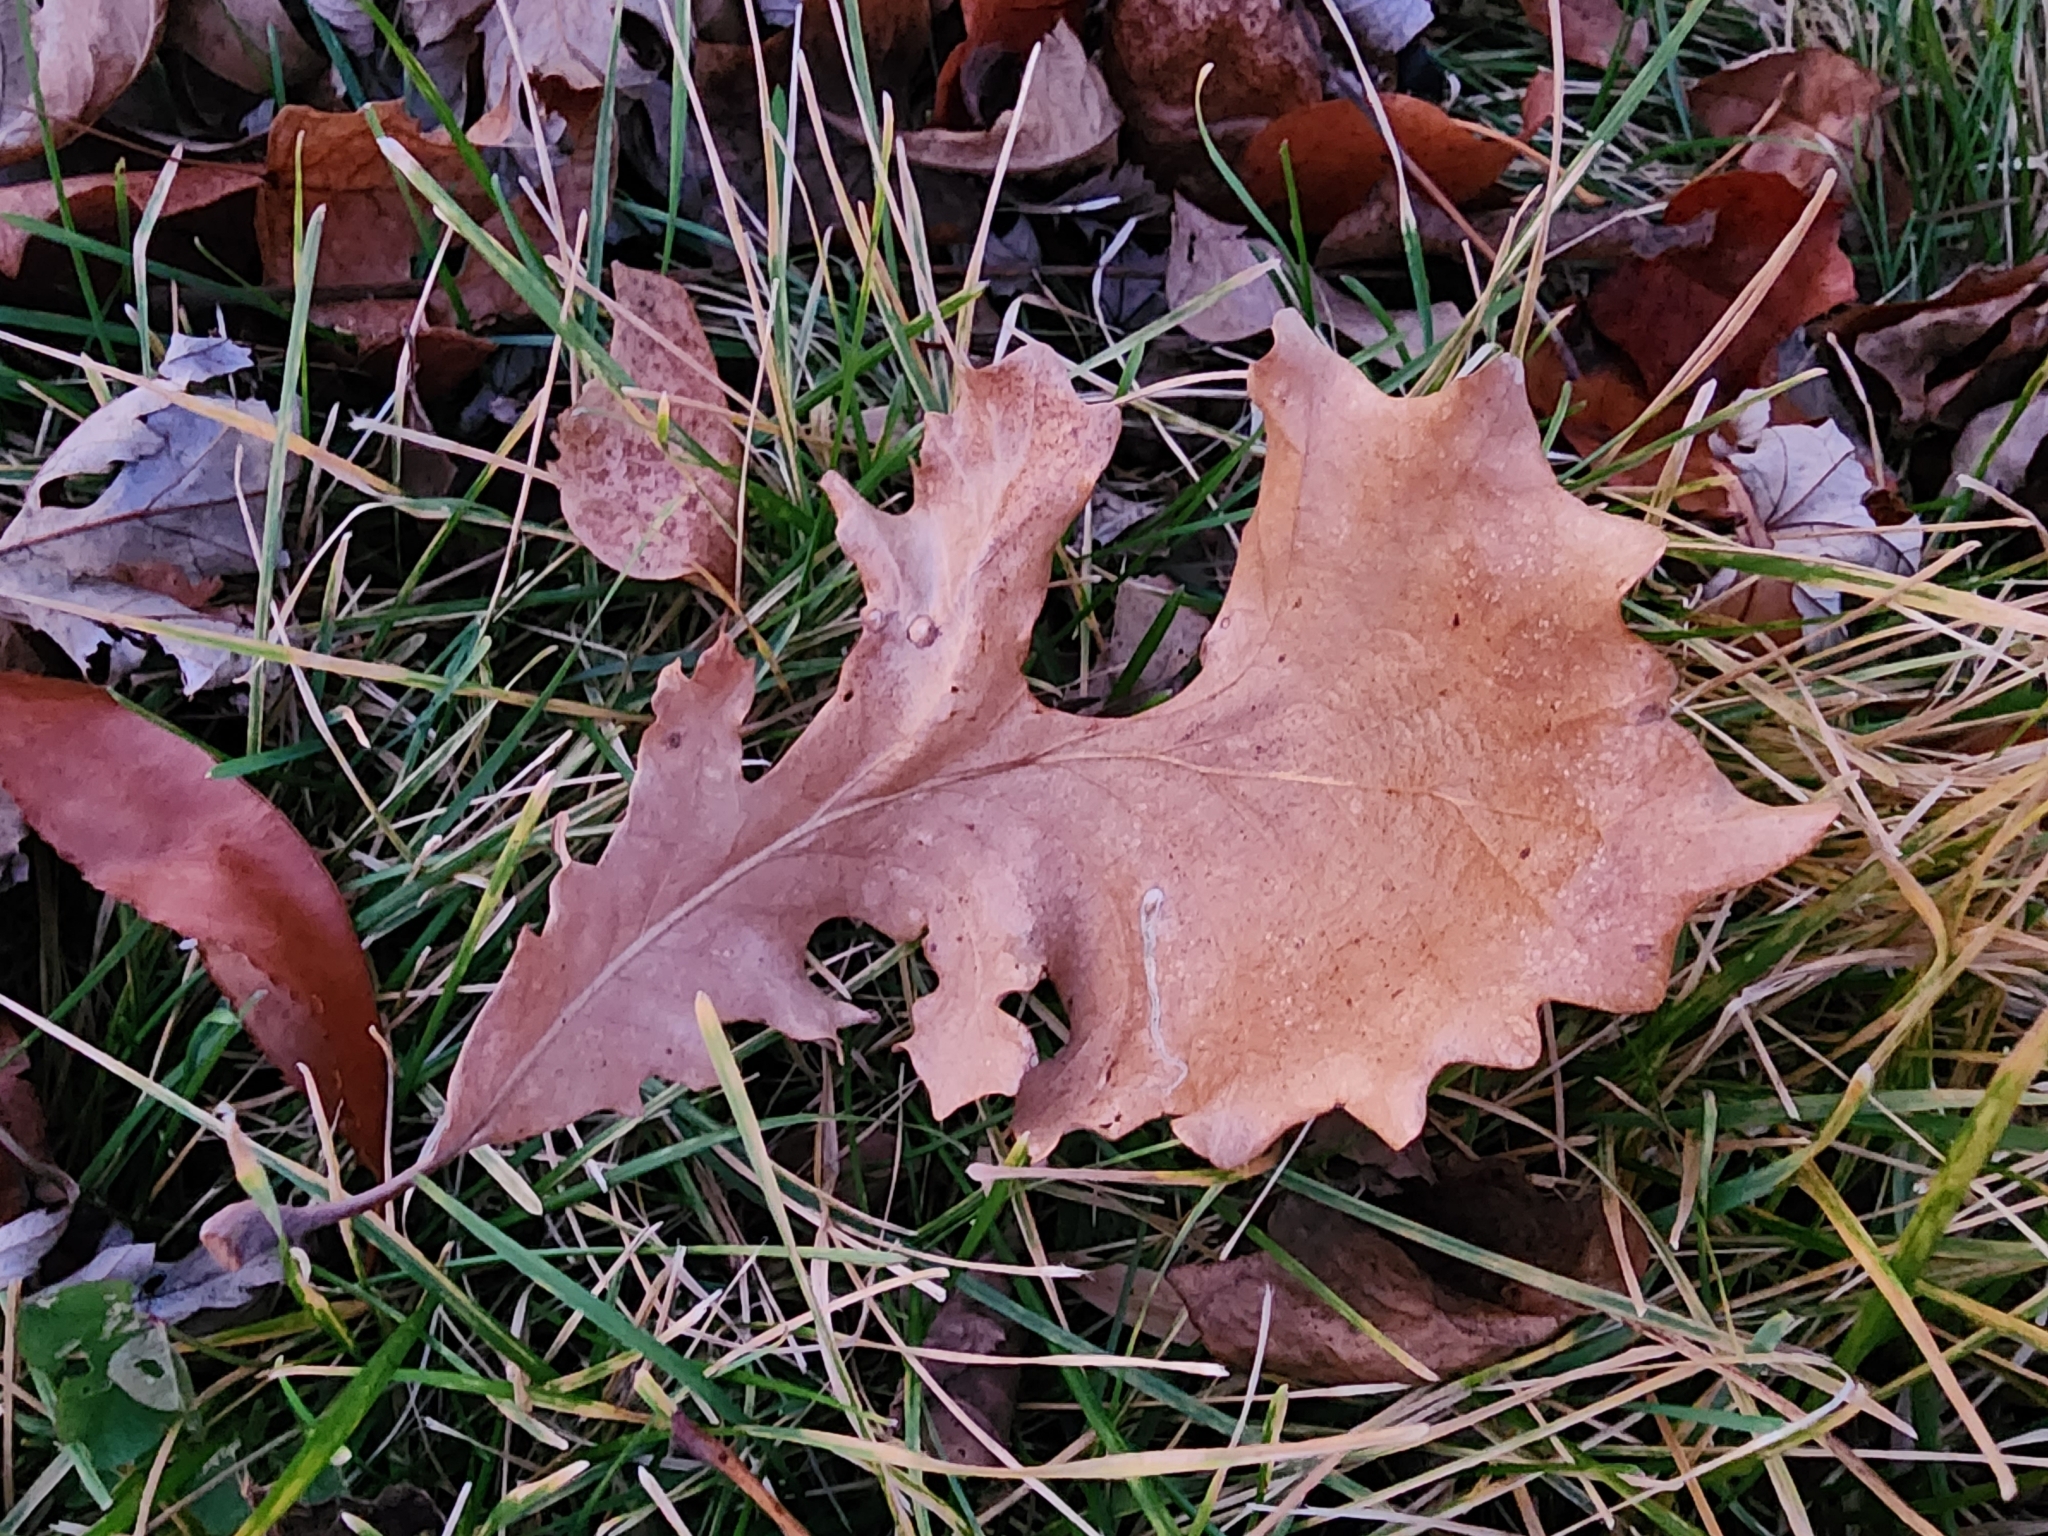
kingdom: Plantae
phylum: Tracheophyta
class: Magnoliopsida
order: Fagales
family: Fagaceae
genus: Quercus
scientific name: Quercus macrocarpa
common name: Bur oak
